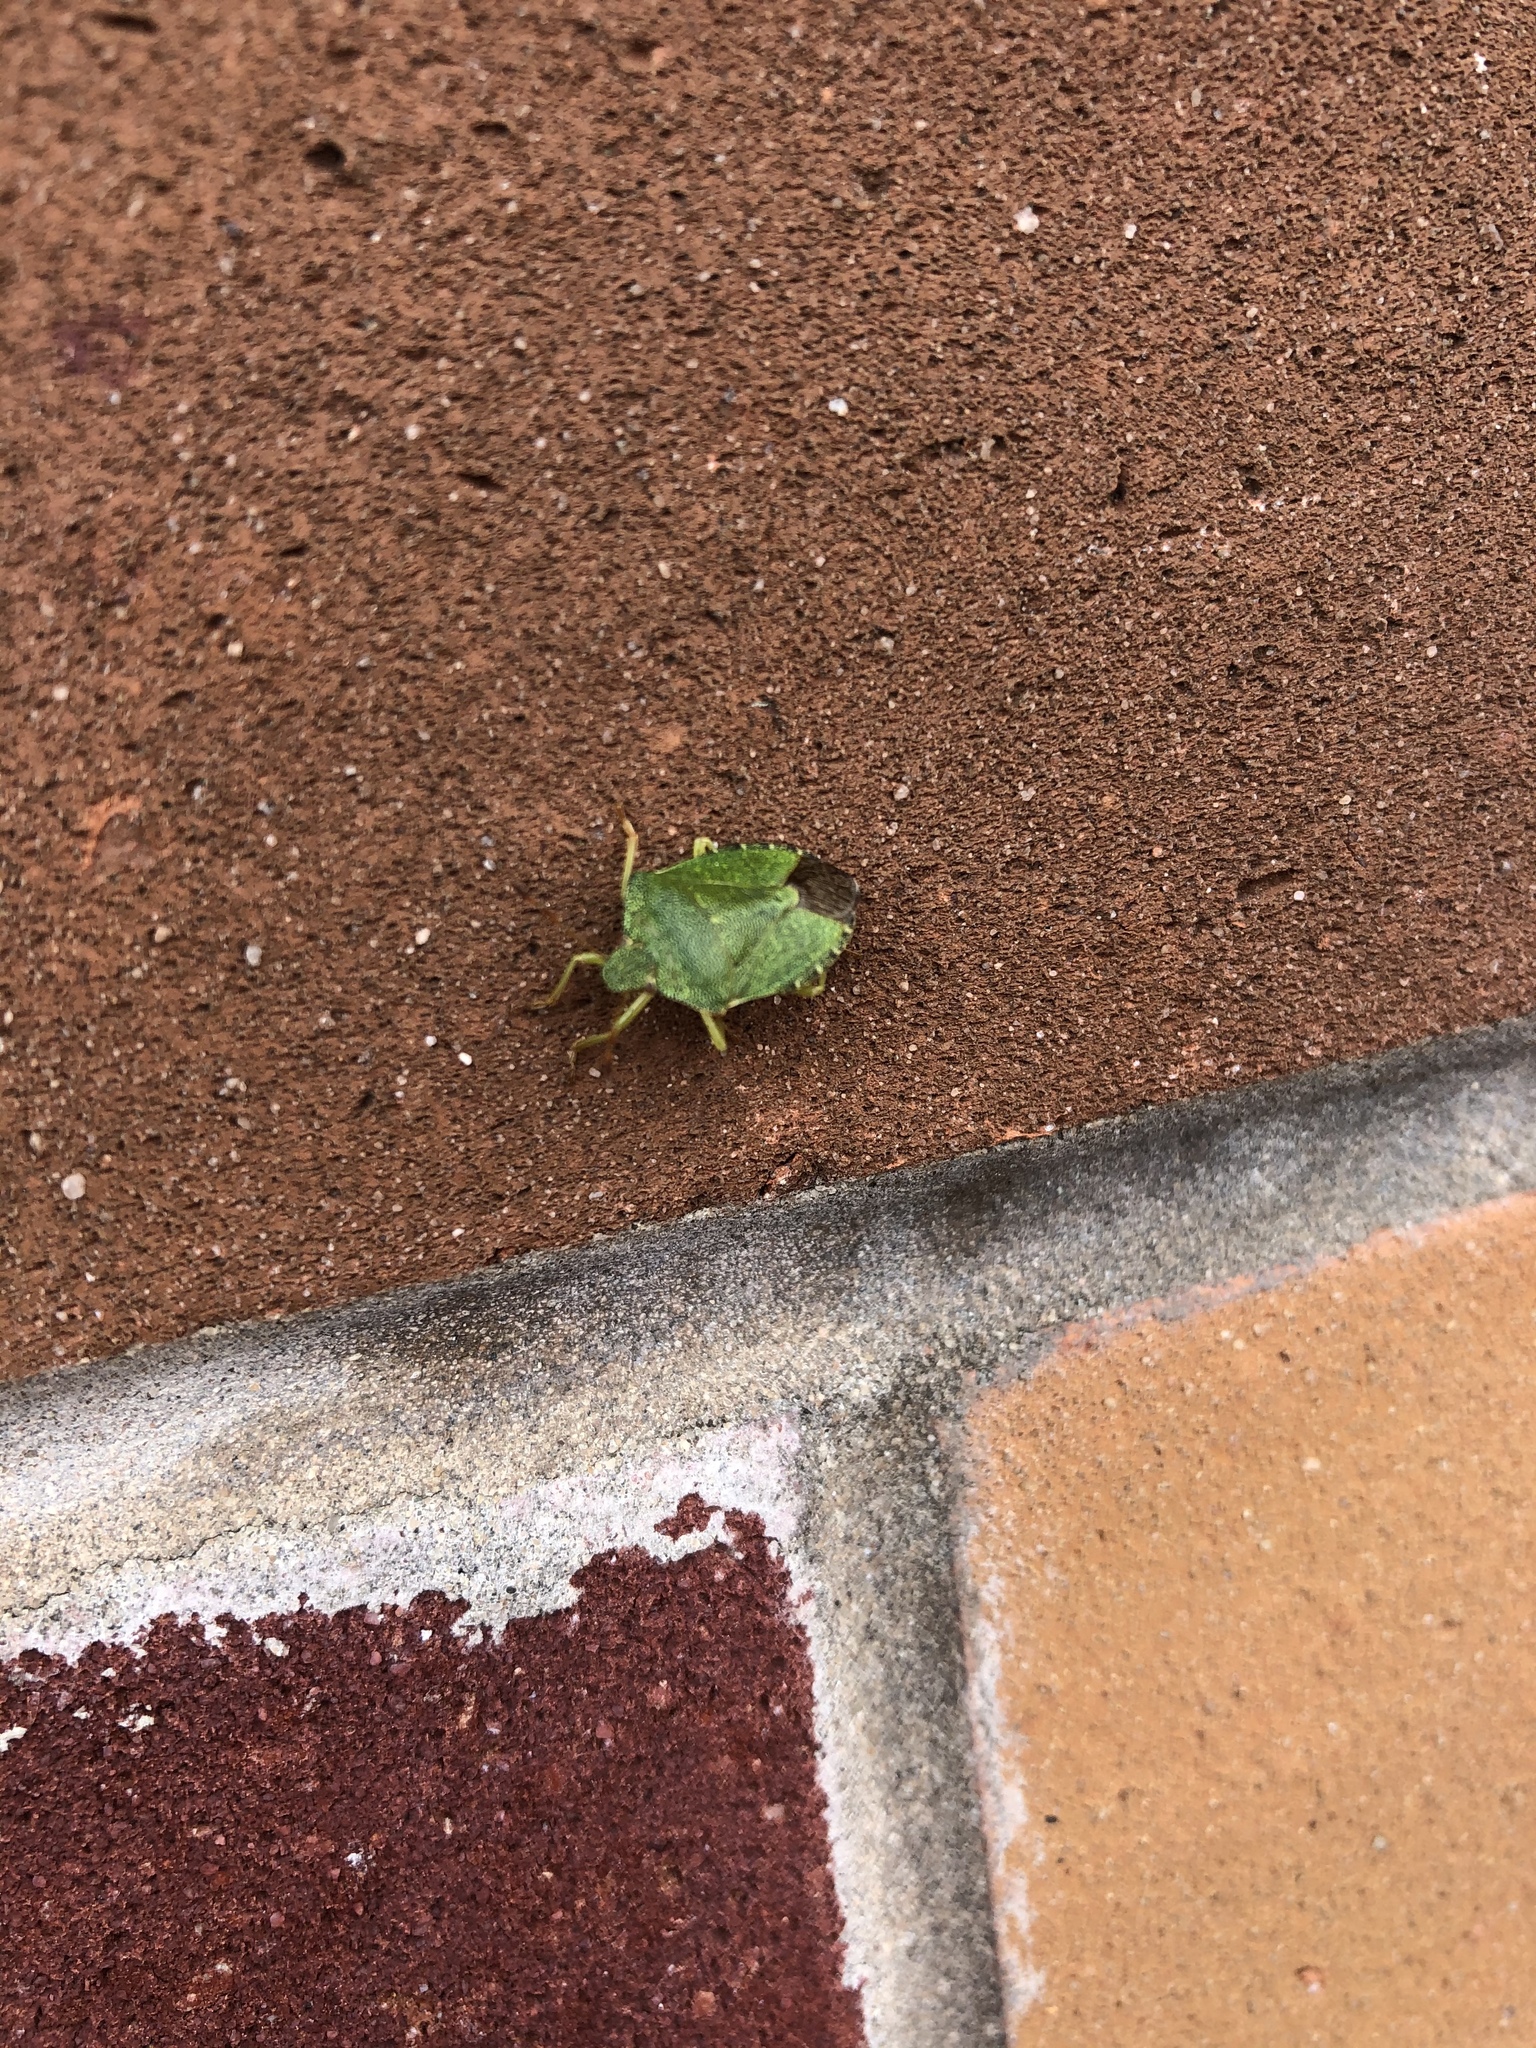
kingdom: Animalia
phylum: Arthropoda
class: Insecta
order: Hemiptera
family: Pentatomidae
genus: Palomena
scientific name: Palomena prasina
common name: Green shieldbug
